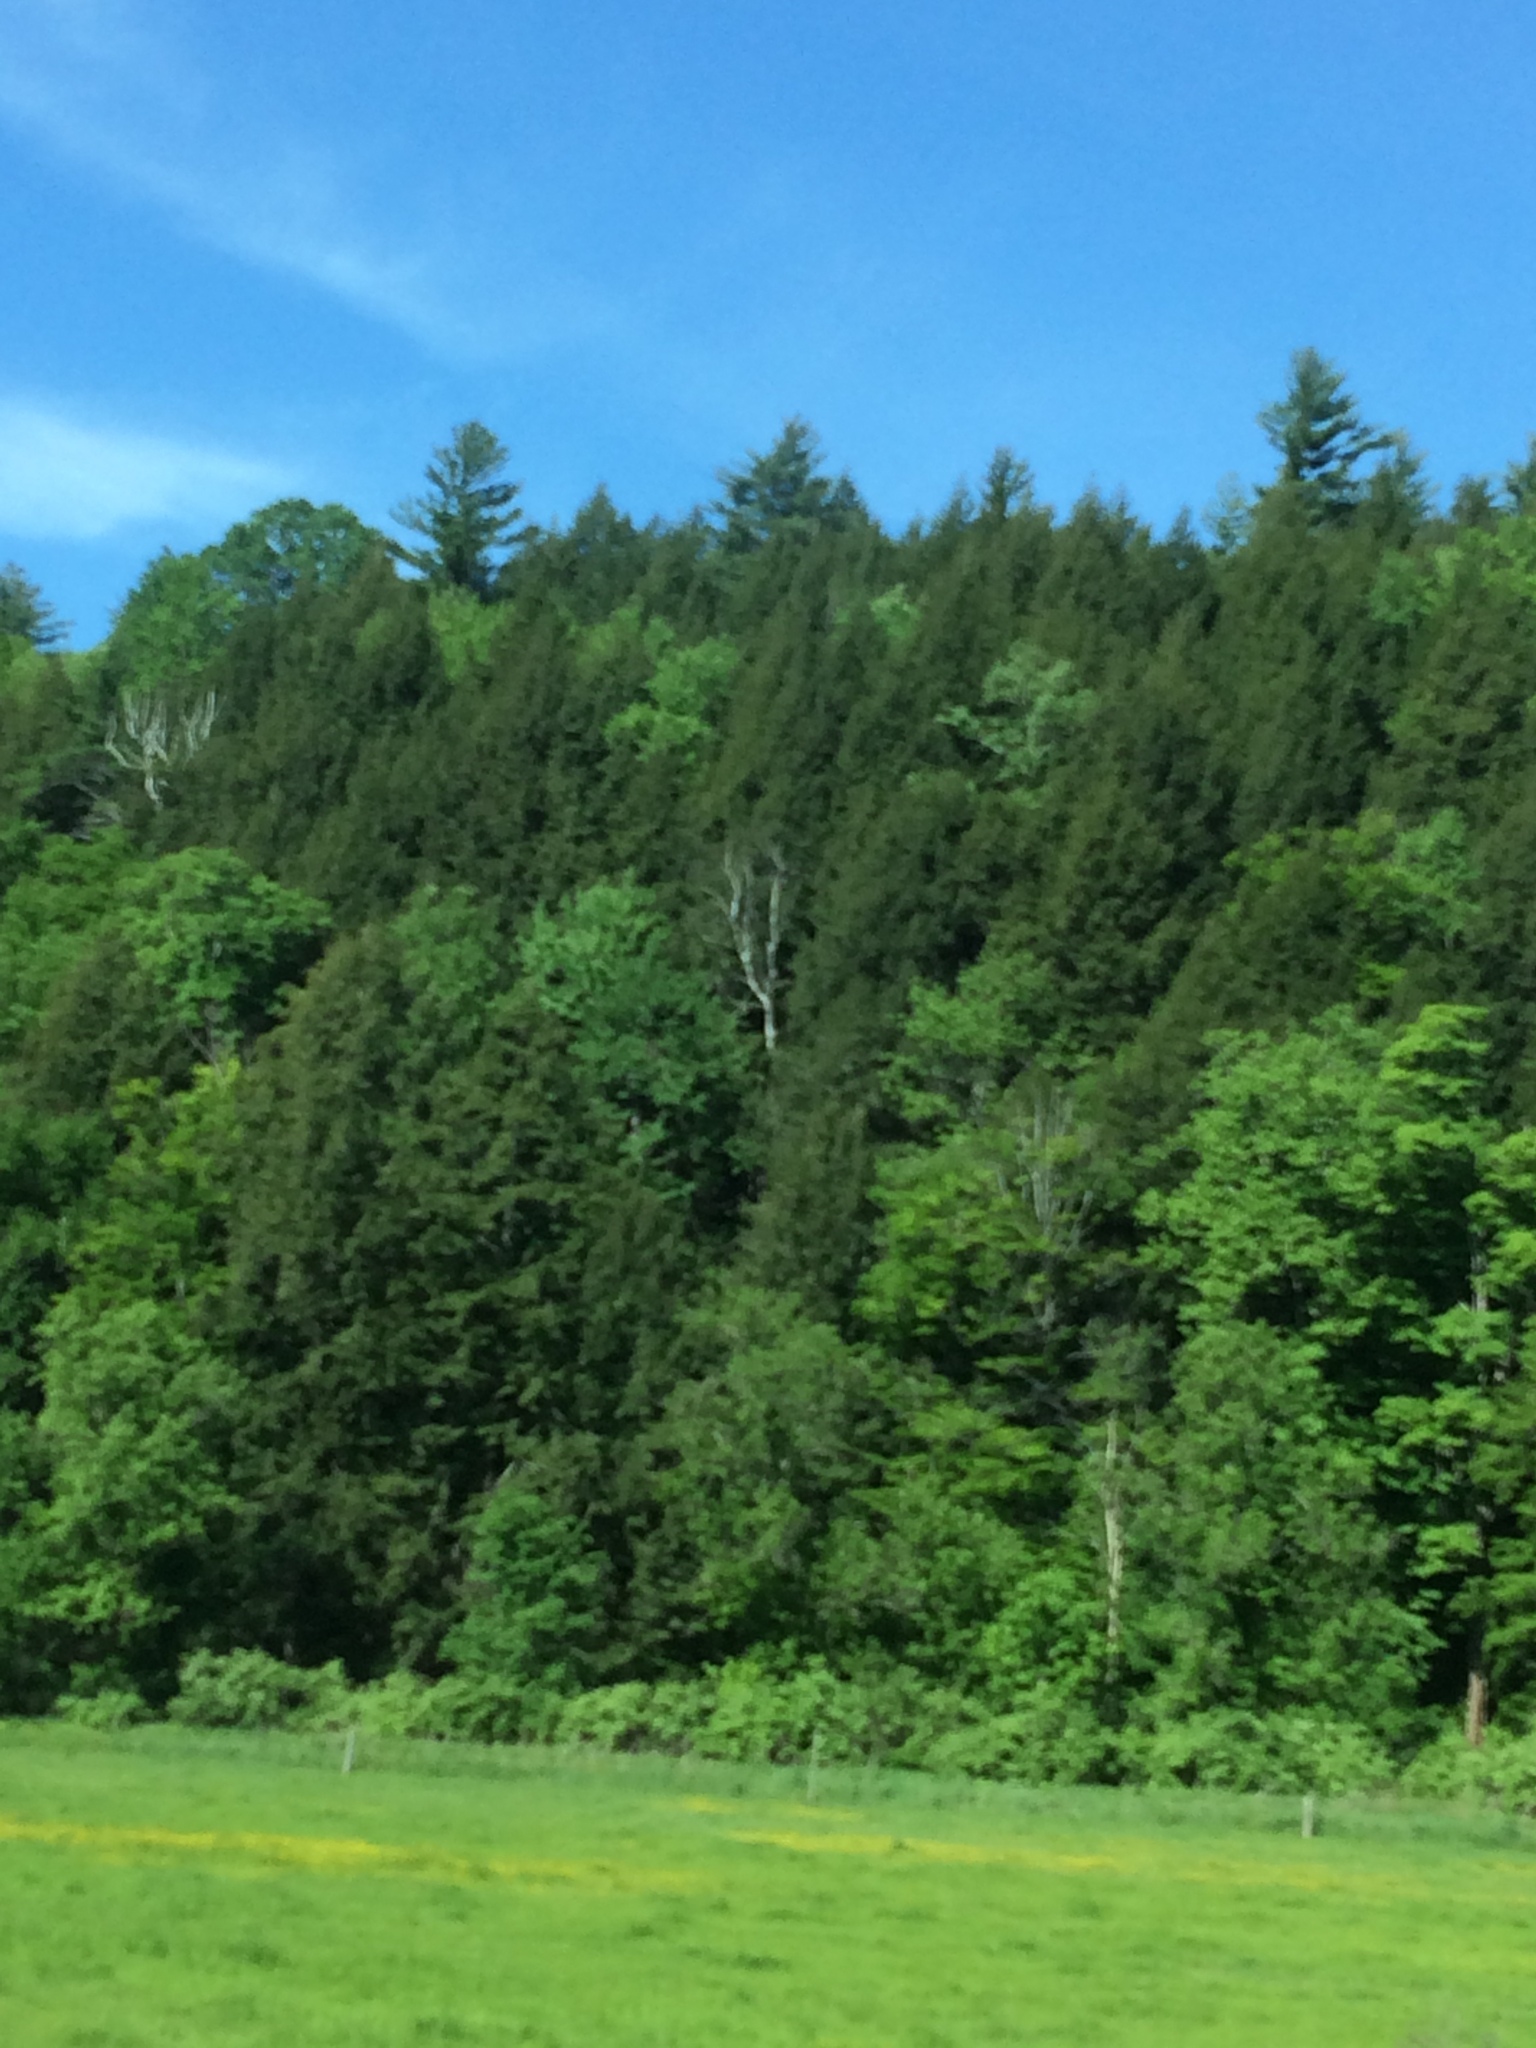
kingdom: Plantae
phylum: Tracheophyta
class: Pinopsida
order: Pinales
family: Pinaceae
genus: Pinus
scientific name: Pinus strobus
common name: Weymouth pine
